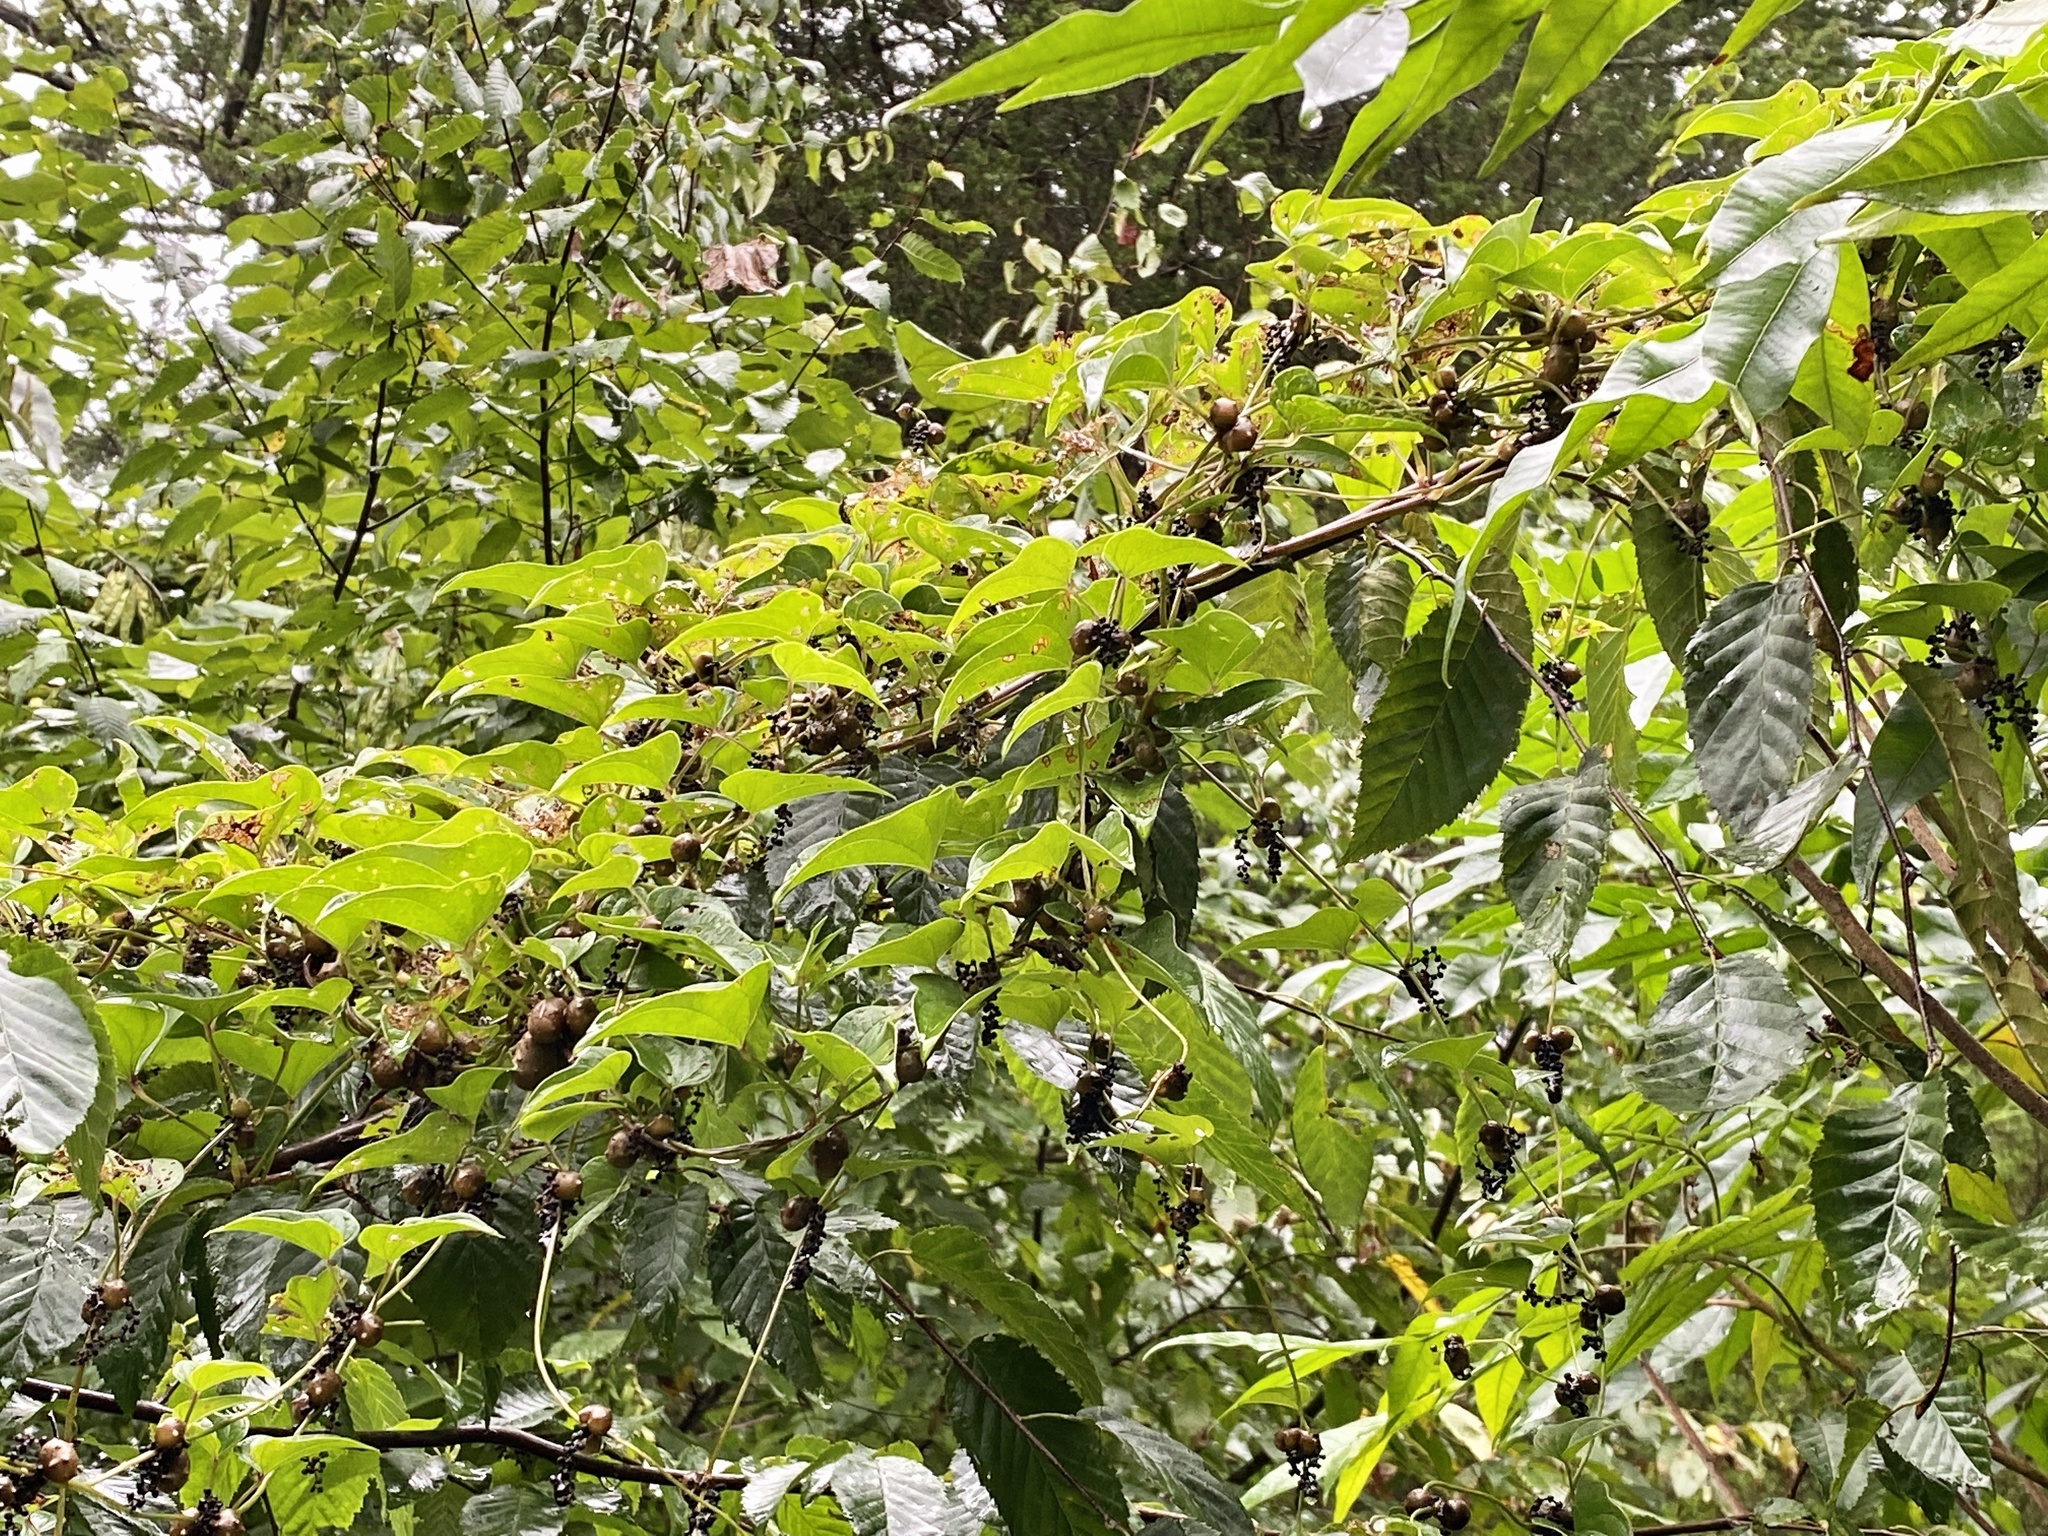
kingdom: Plantae
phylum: Tracheophyta
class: Liliopsida
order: Dioscoreales
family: Dioscoreaceae
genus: Dioscorea
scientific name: Dioscorea polystachya
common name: Chinese yam
